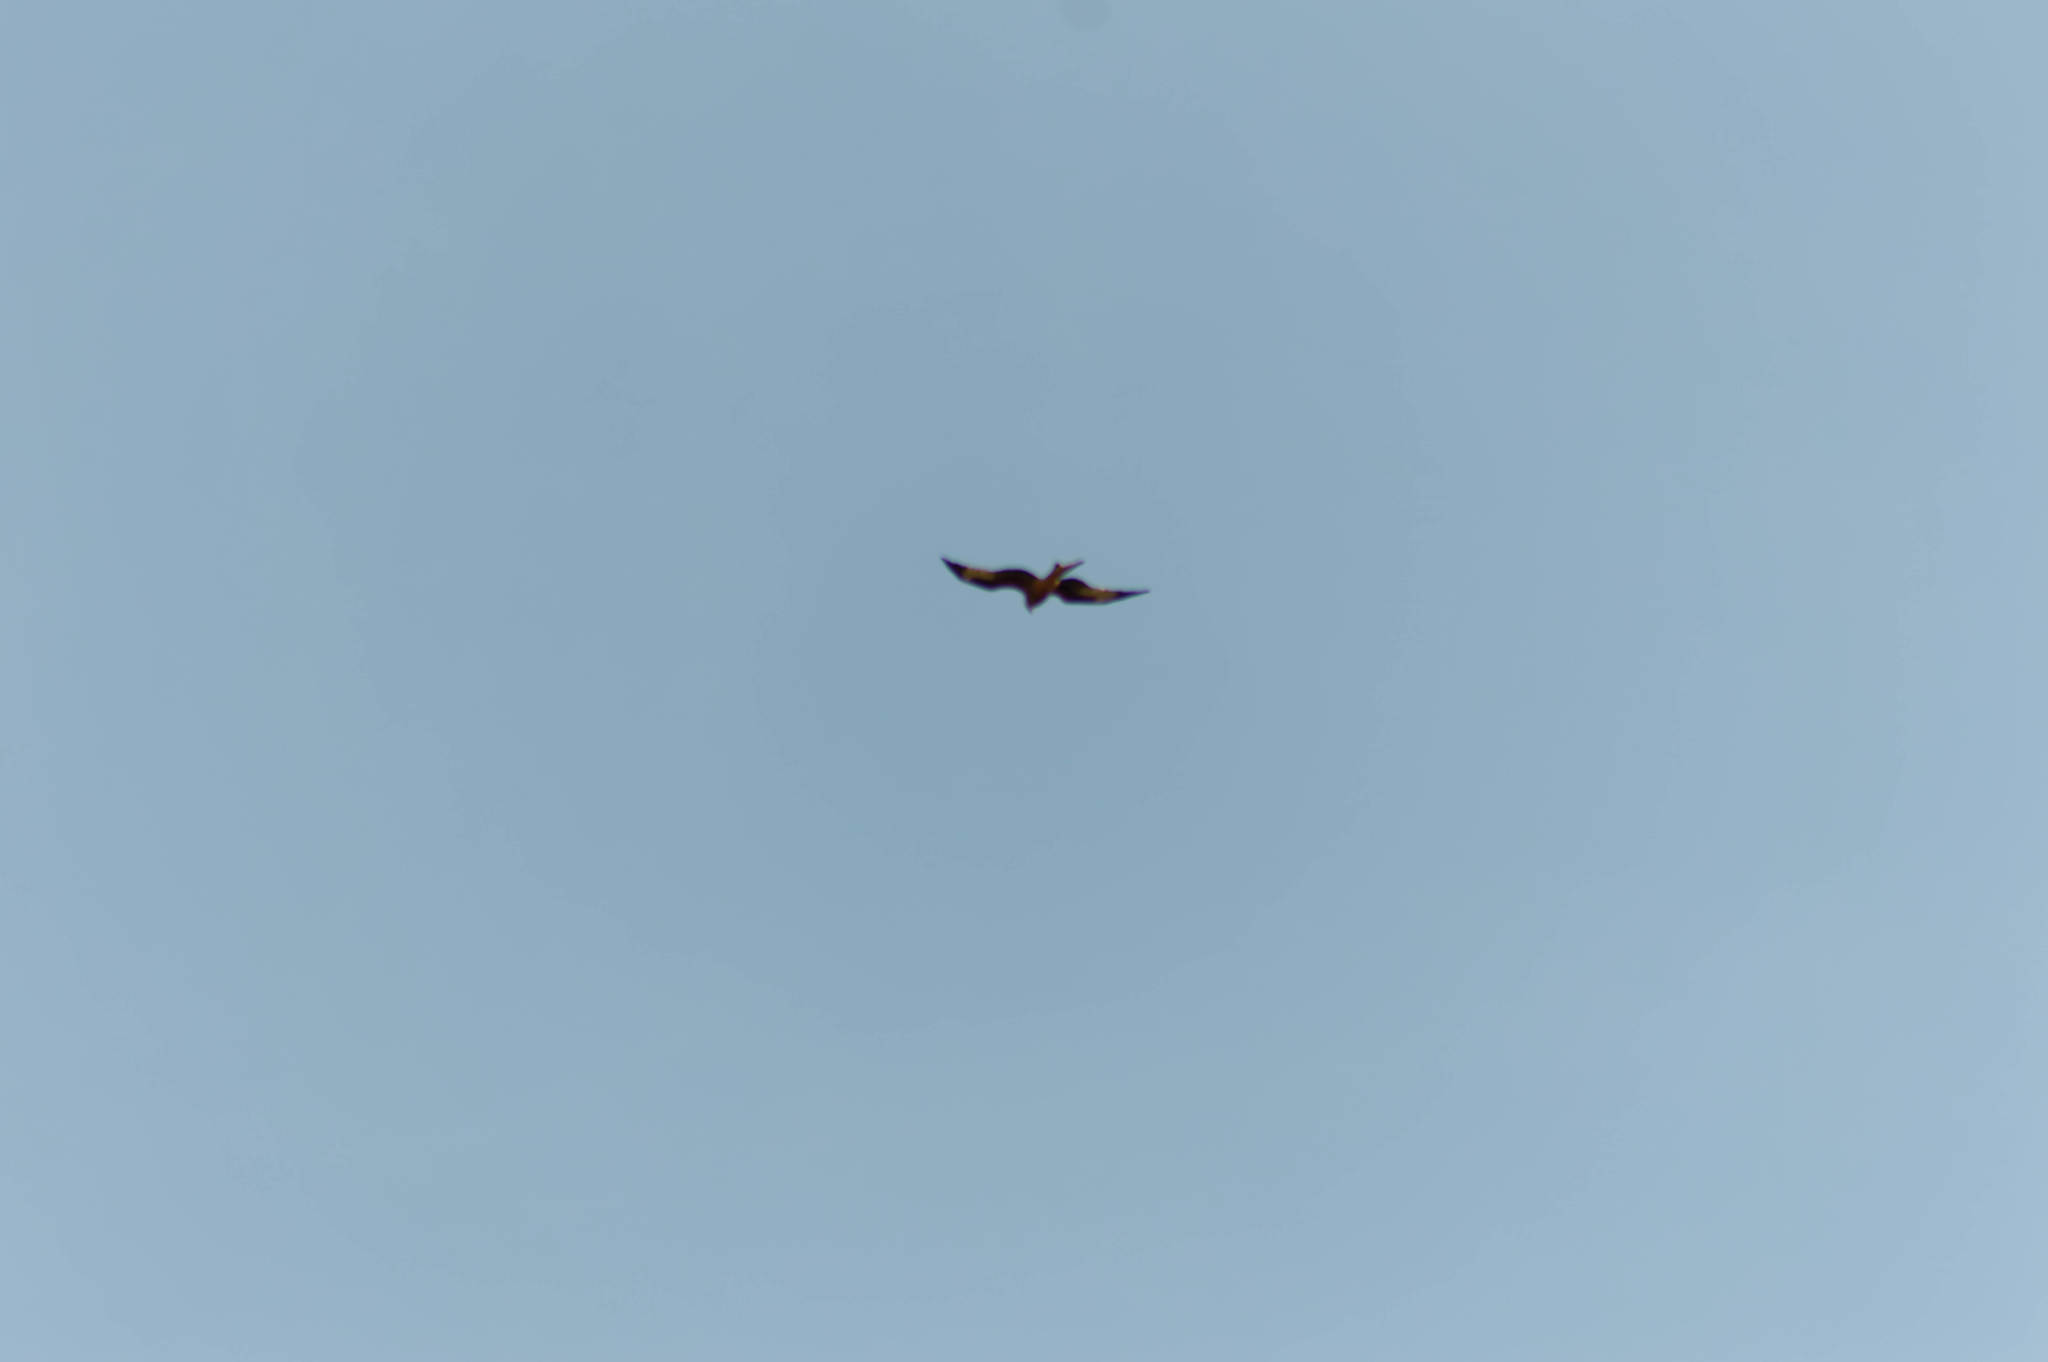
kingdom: Animalia
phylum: Chordata
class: Aves
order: Accipitriformes
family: Accipitridae
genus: Milvus
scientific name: Milvus milvus
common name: Red kite
